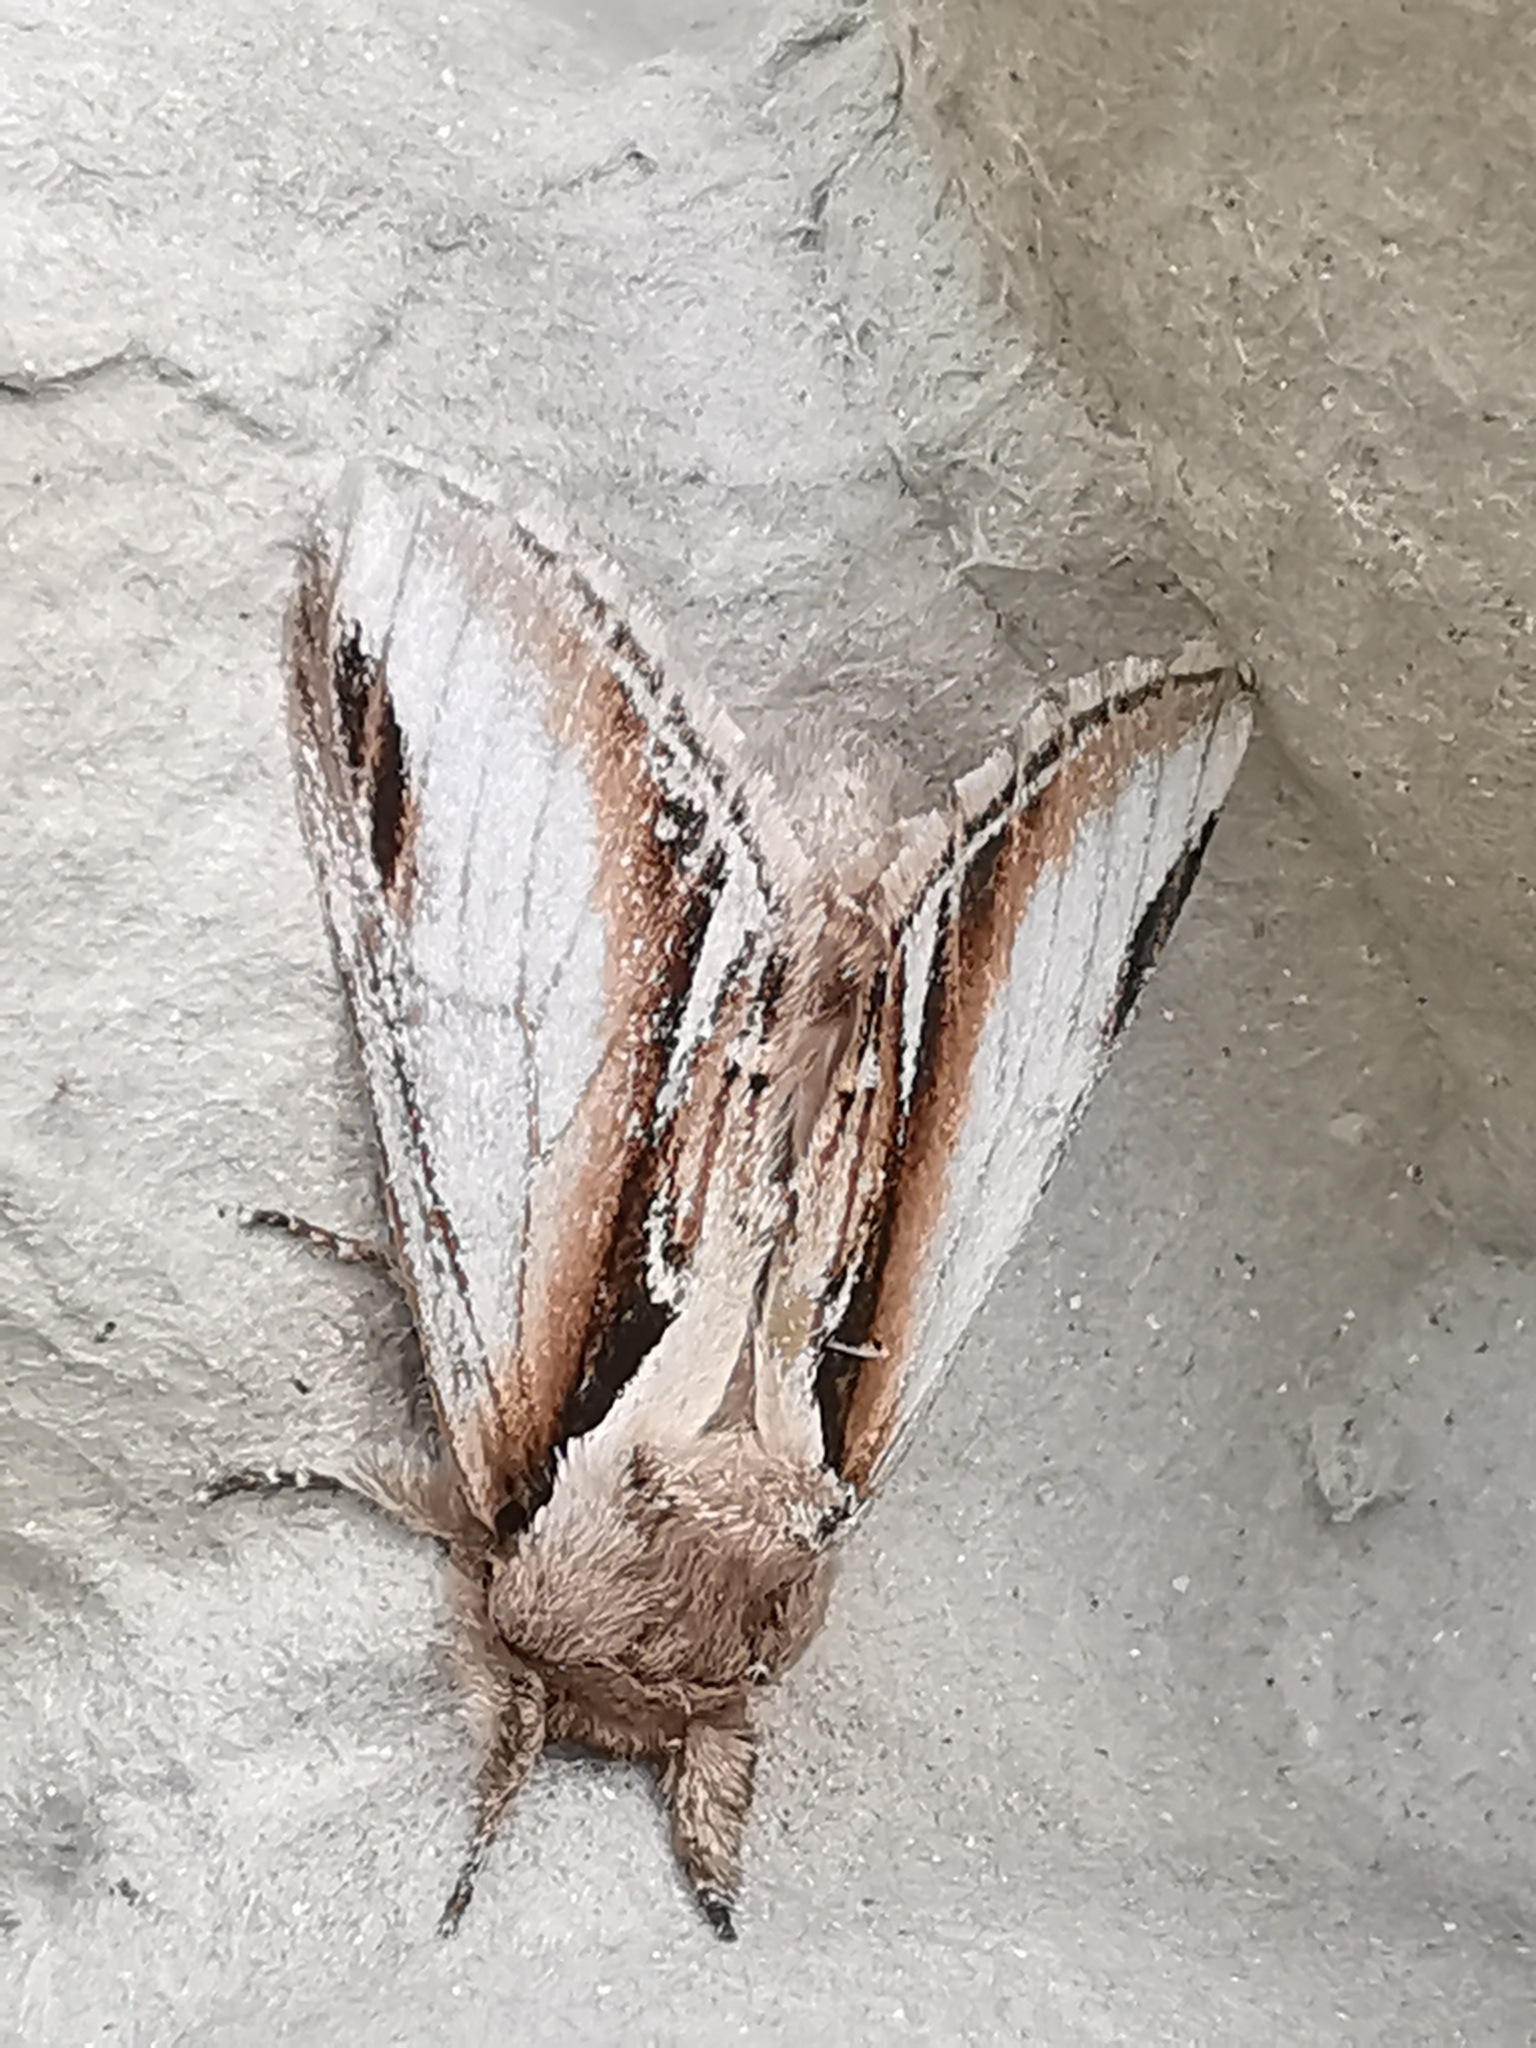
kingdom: Animalia
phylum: Arthropoda
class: Insecta
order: Lepidoptera
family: Notodontidae
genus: Pheosia
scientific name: Pheosia gnoma
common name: Lesser swallow prominent
